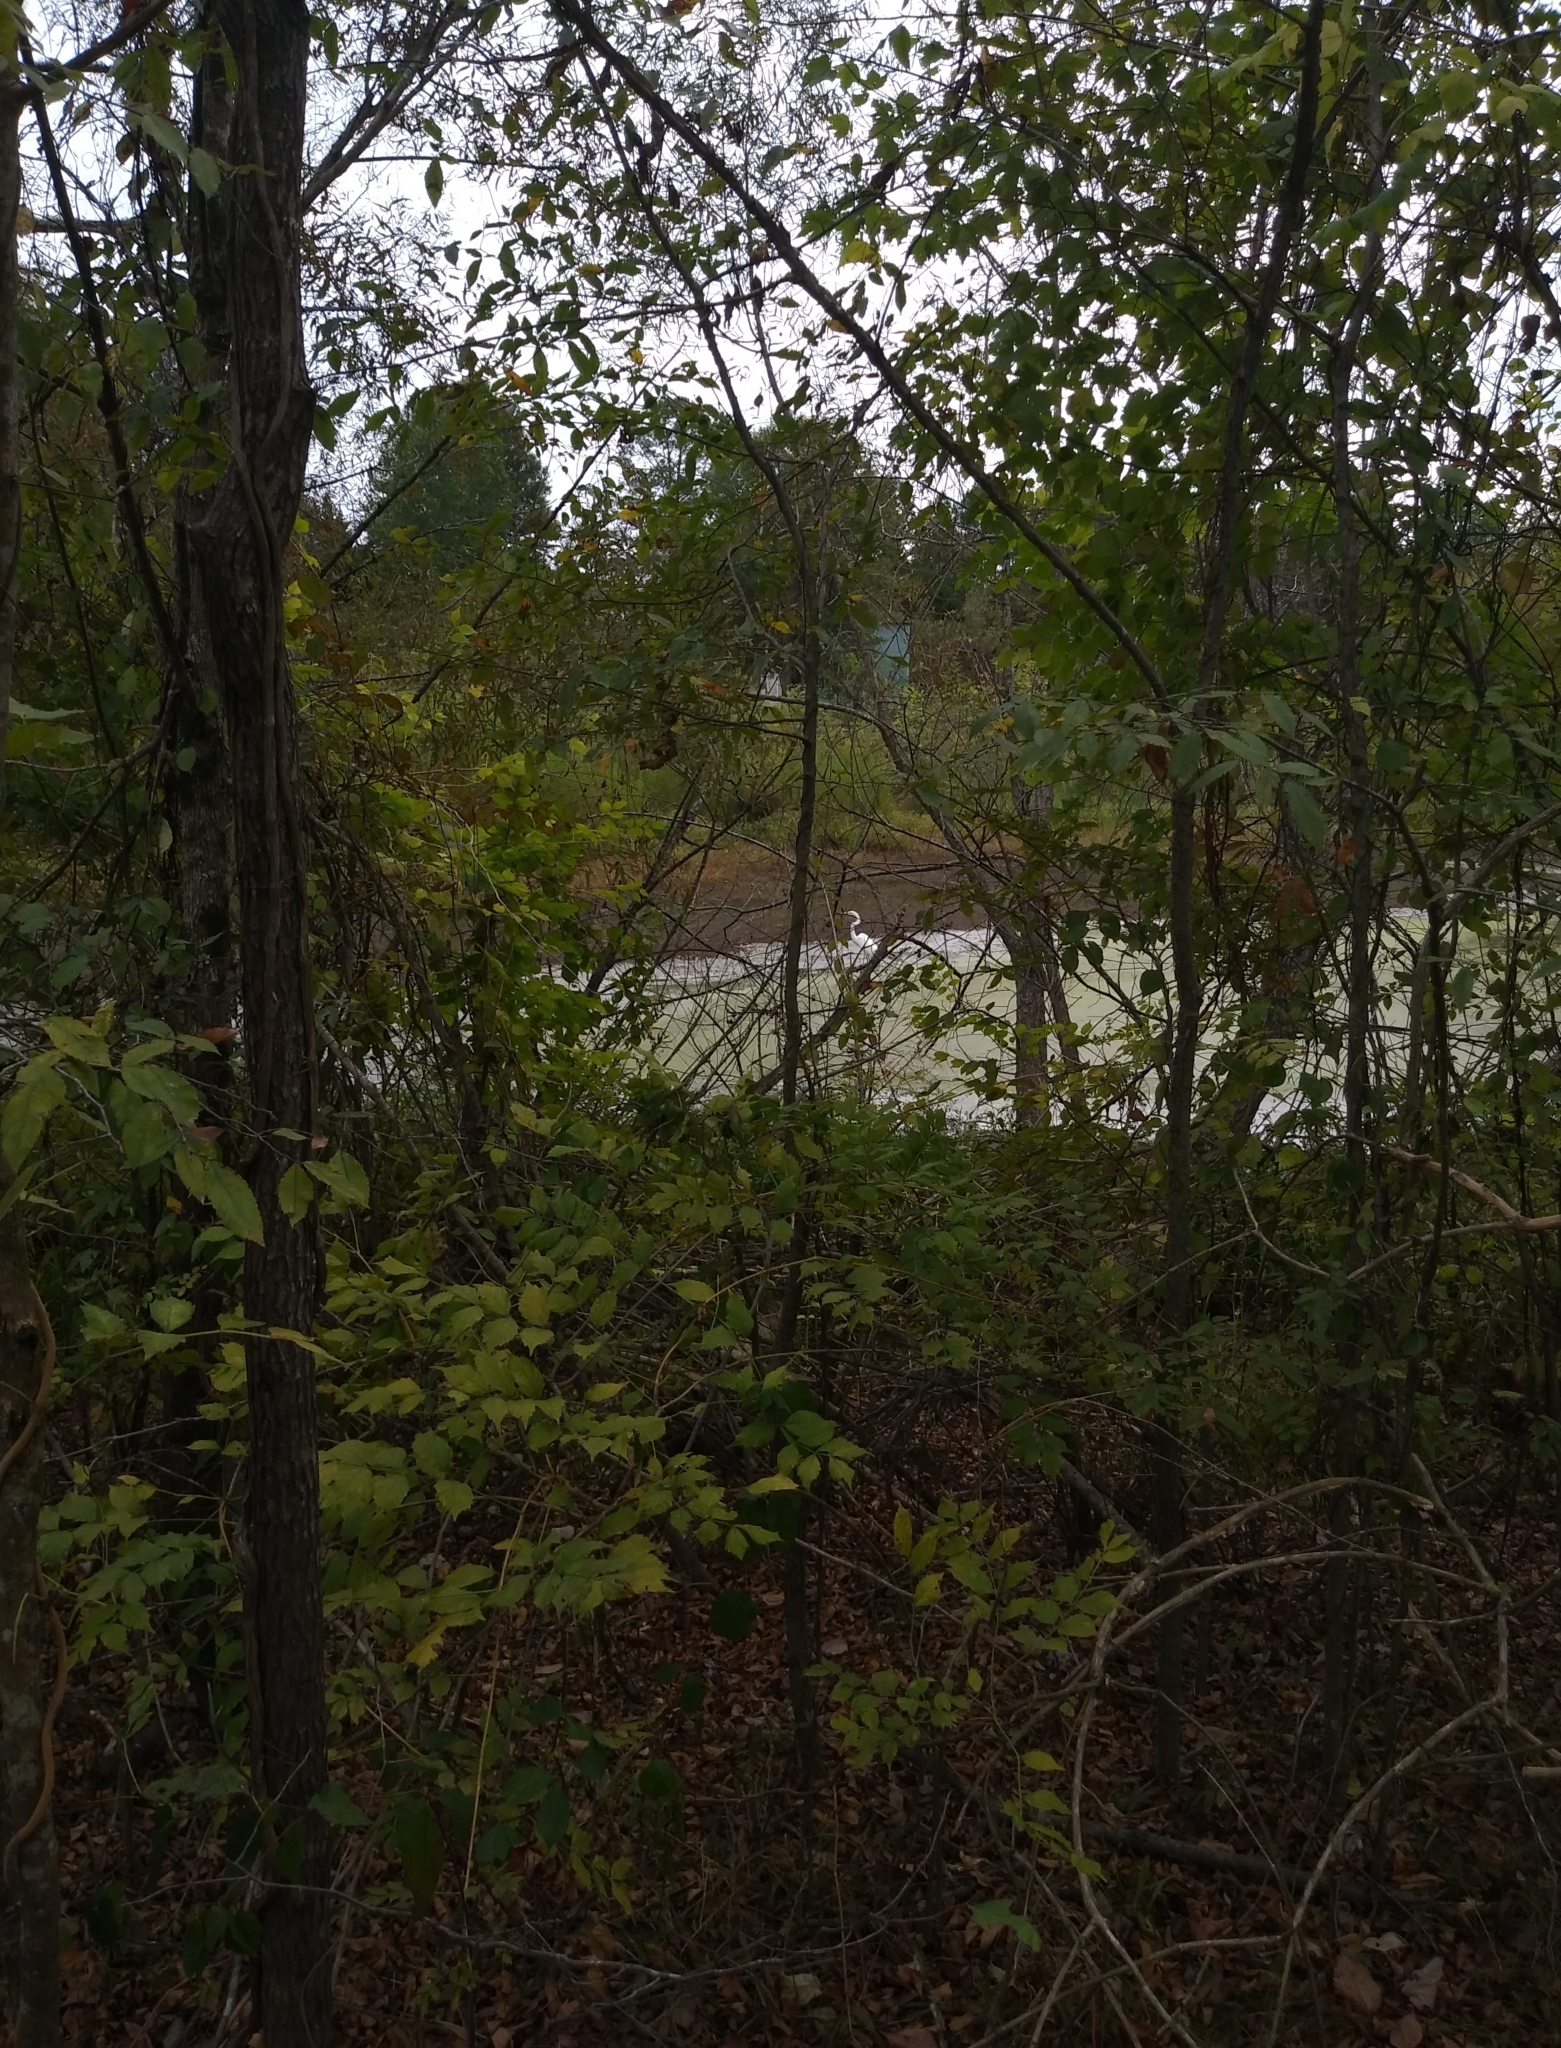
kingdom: Animalia
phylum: Chordata
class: Aves
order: Pelecaniformes
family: Ardeidae
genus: Ardea
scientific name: Ardea alba
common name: Great egret
